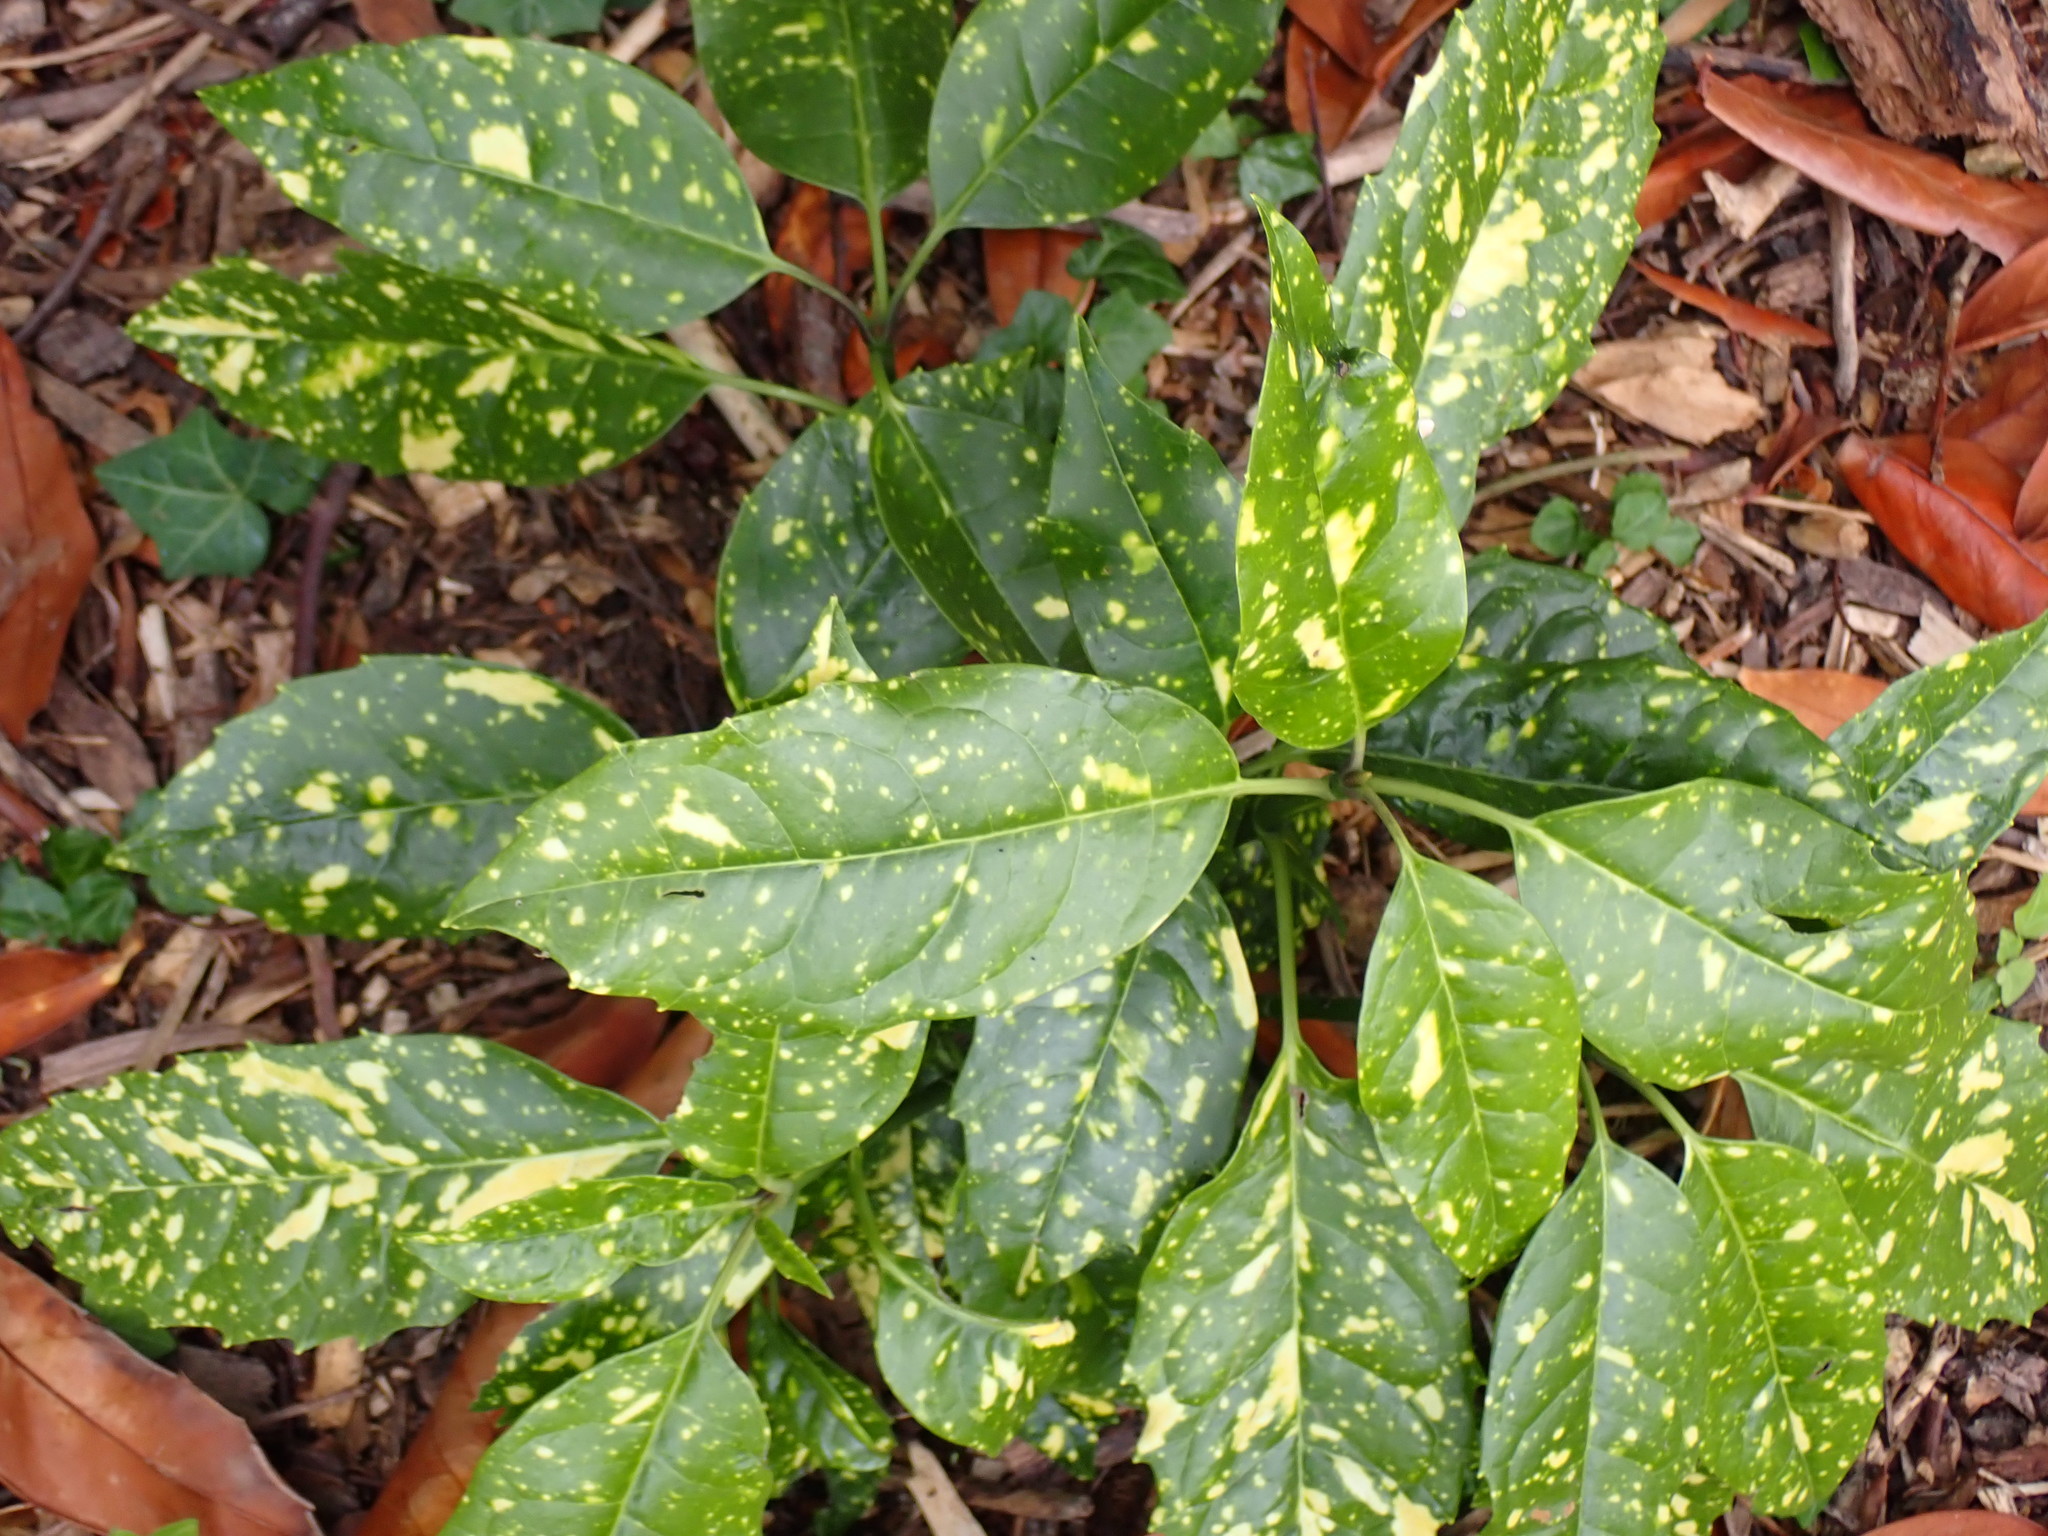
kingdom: Plantae
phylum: Tracheophyta
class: Magnoliopsida
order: Garryales
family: Garryaceae
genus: Aucuba
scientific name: Aucuba japonica
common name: Spotted-laurel
